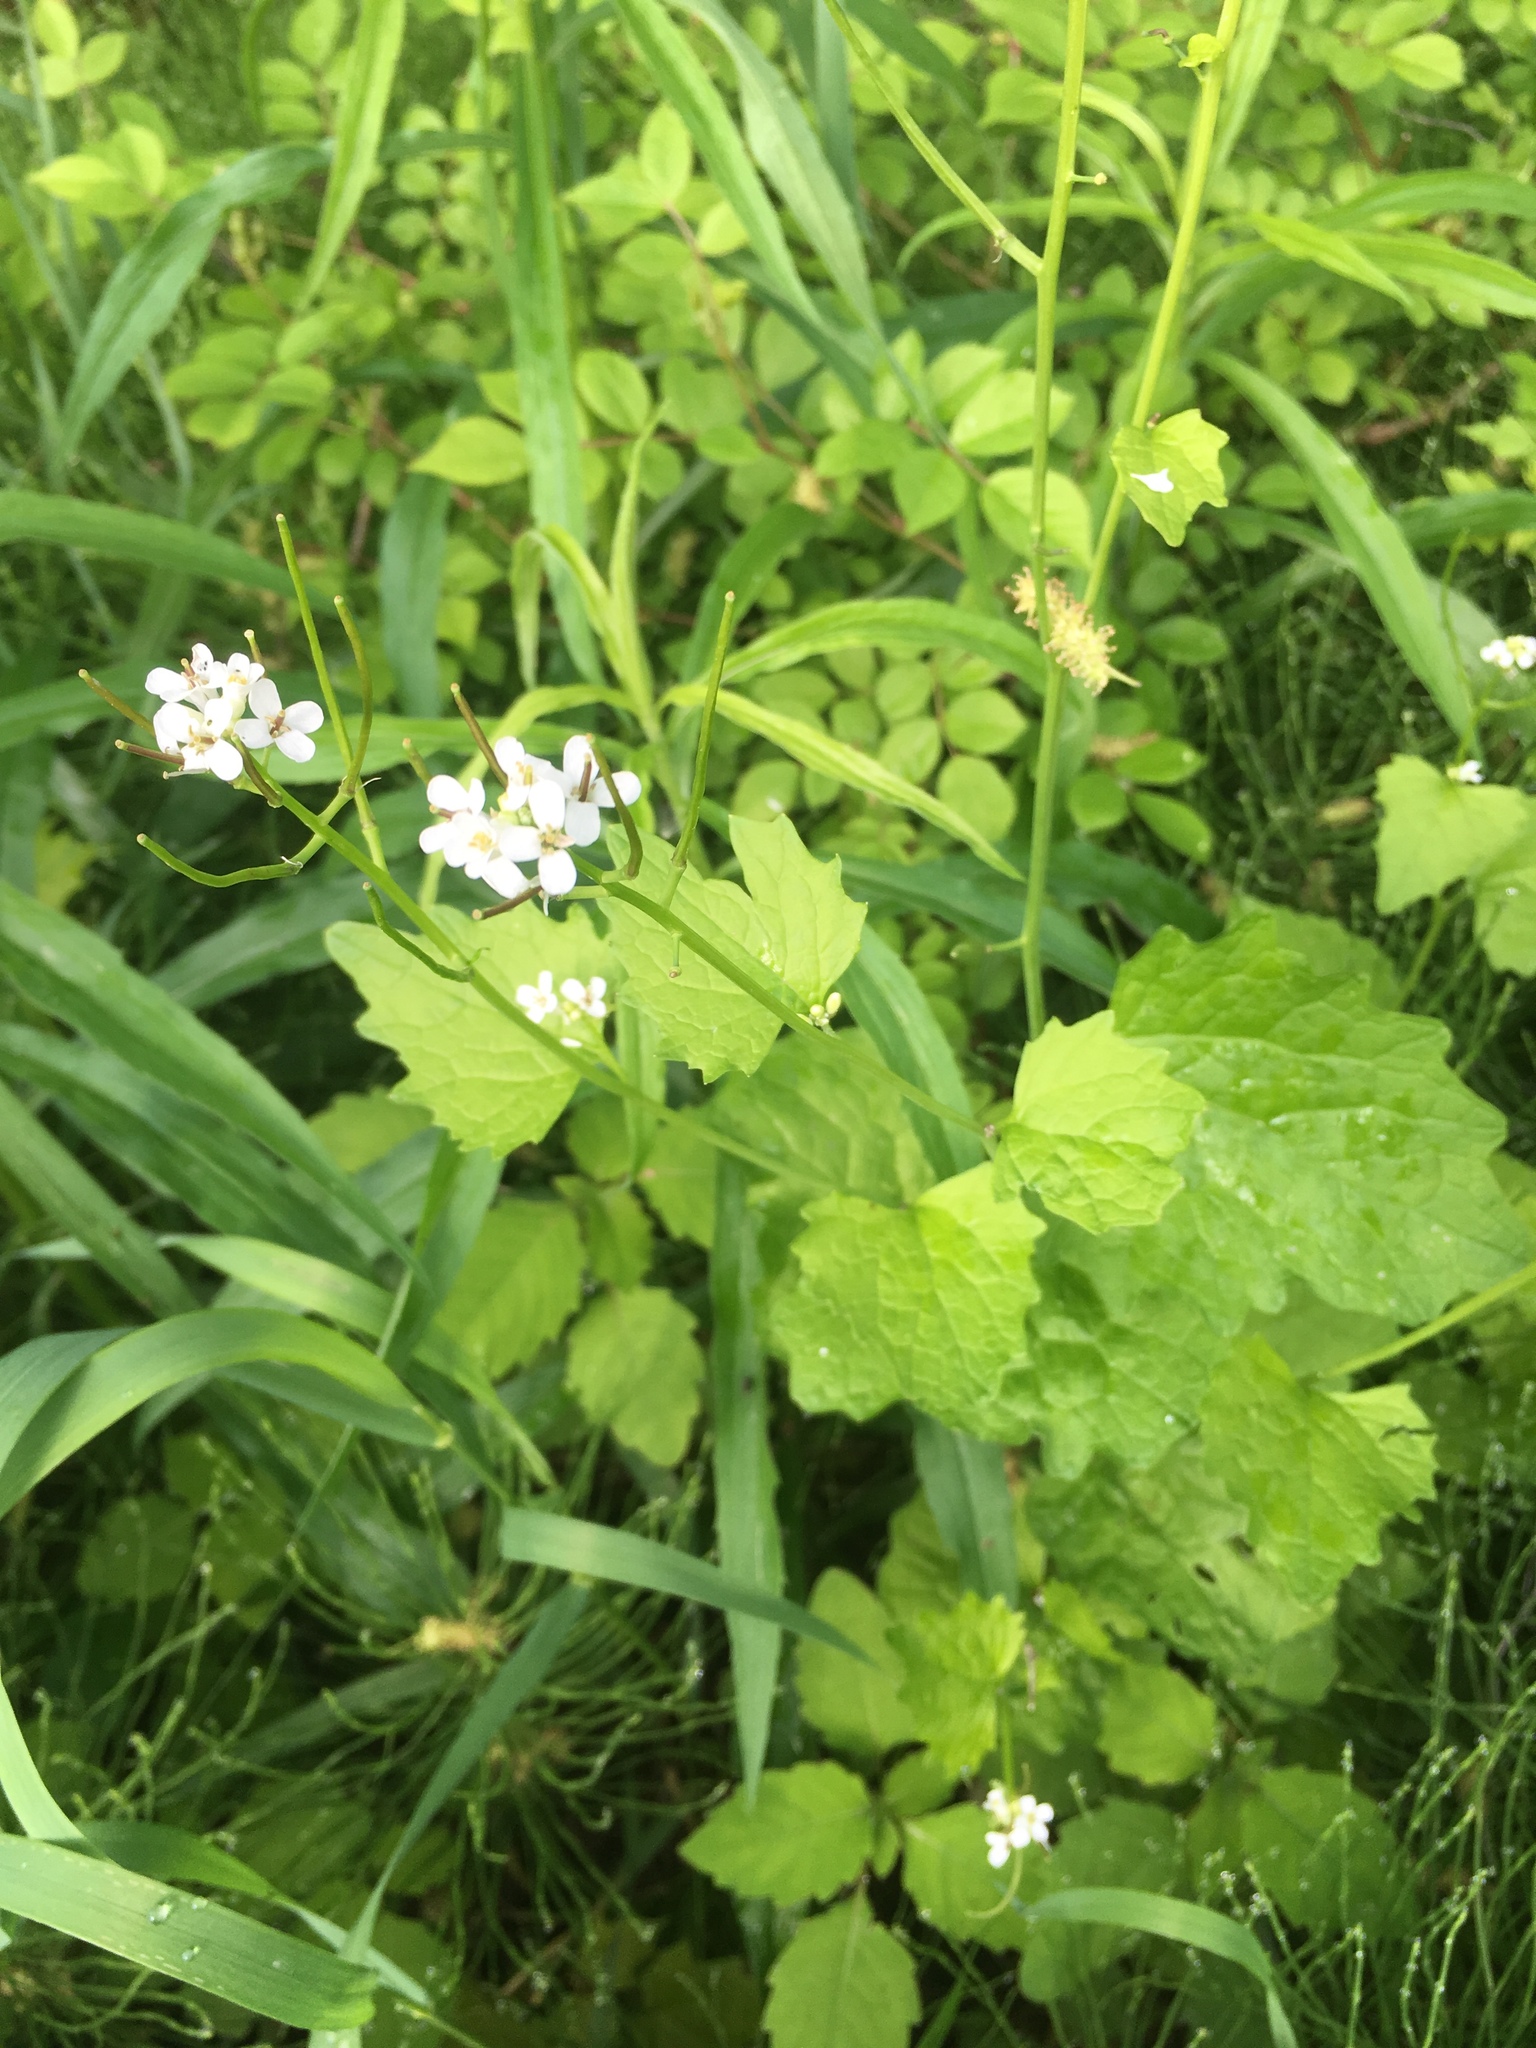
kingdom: Plantae
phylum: Tracheophyta
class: Magnoliopsida
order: Brassicales
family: Brassicaceae
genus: Alliaria
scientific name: Alliaria petiolata
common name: Garlic mustard
